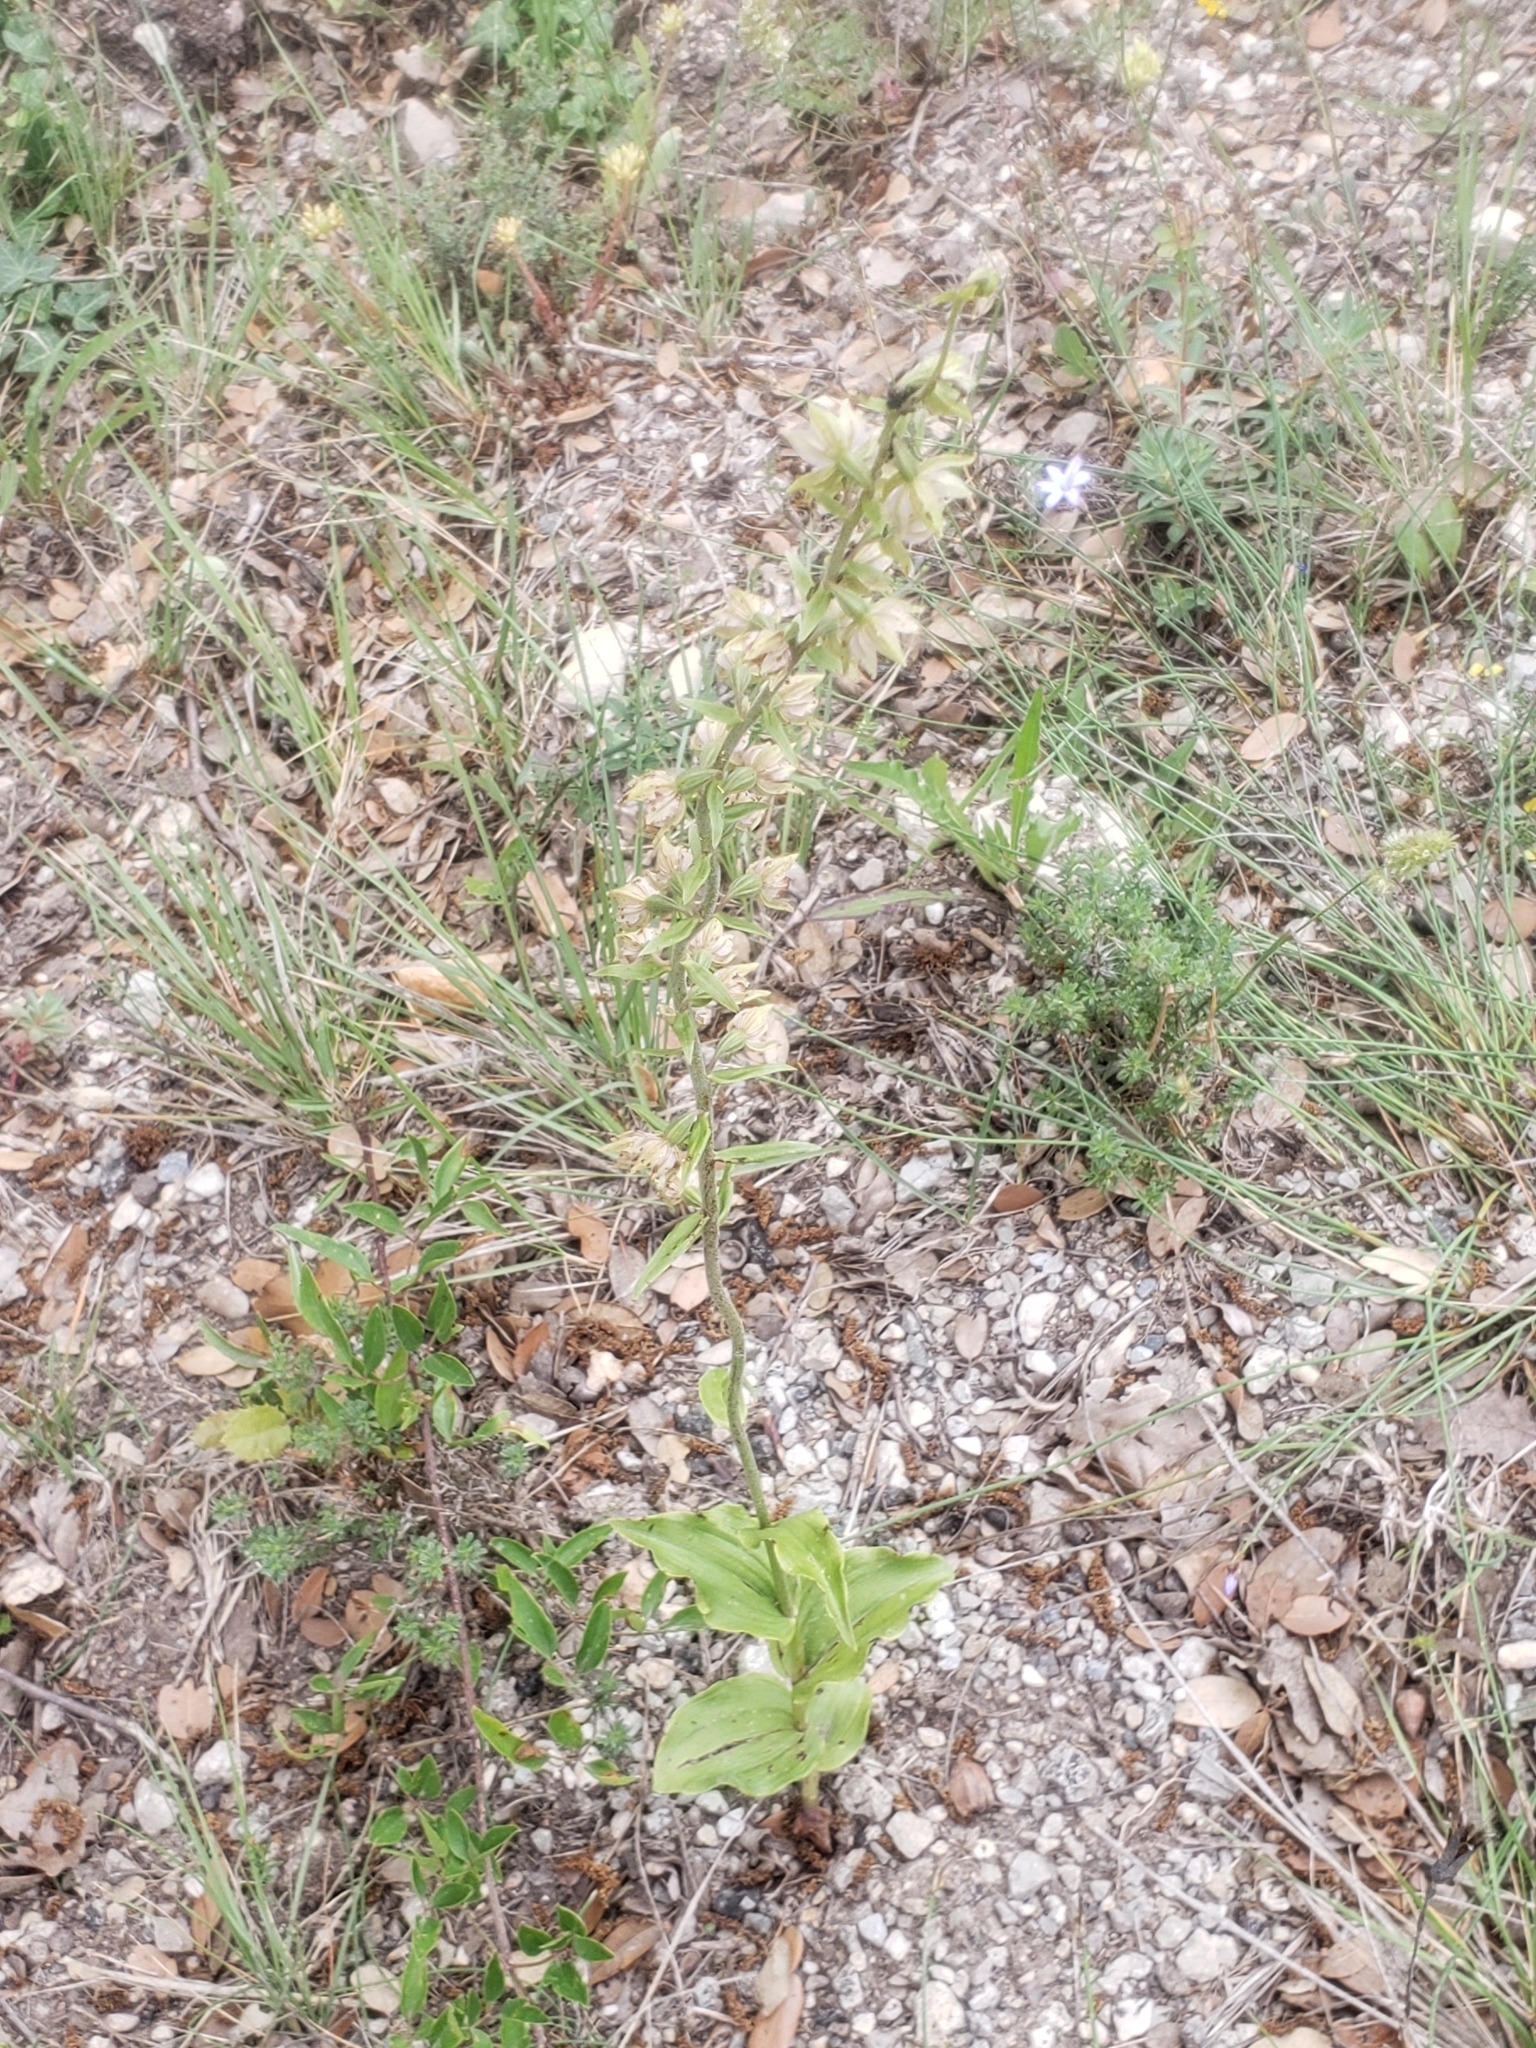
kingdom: Plantae
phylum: Tracheophyta
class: Liliopsida
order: Asparagales
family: Orchidaceae
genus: Epipactis
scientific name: Epipactis helleborine
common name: Broad-leaved helleborine
